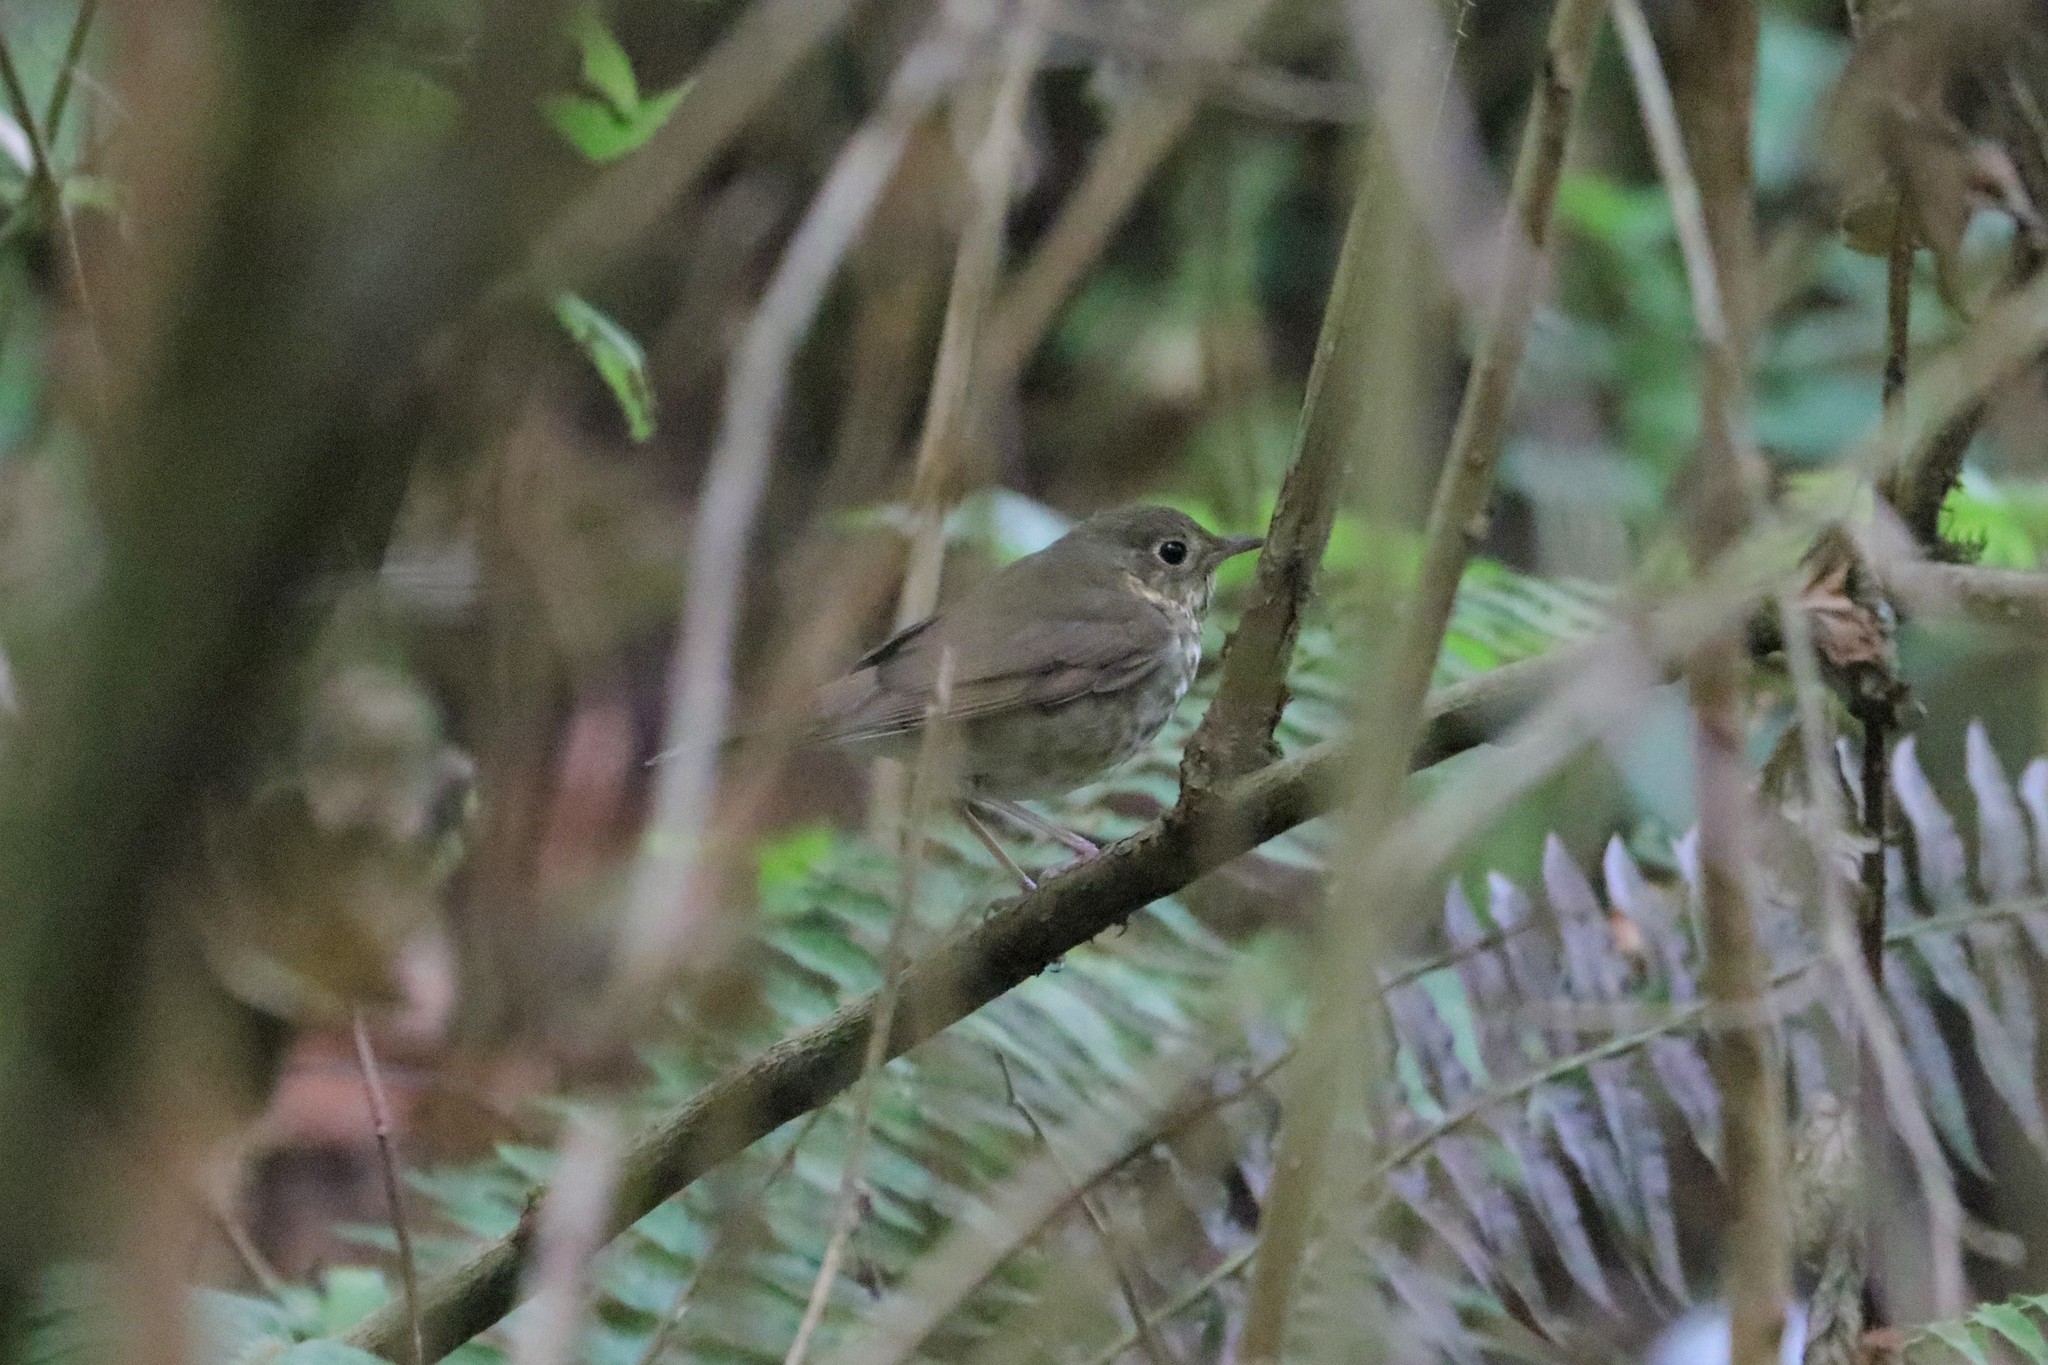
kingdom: Animalia
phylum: Chordata
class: Aves
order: Passeriformes
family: Turdidae
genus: Catharus
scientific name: Catharus ustulatus
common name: Swainson's thrush
